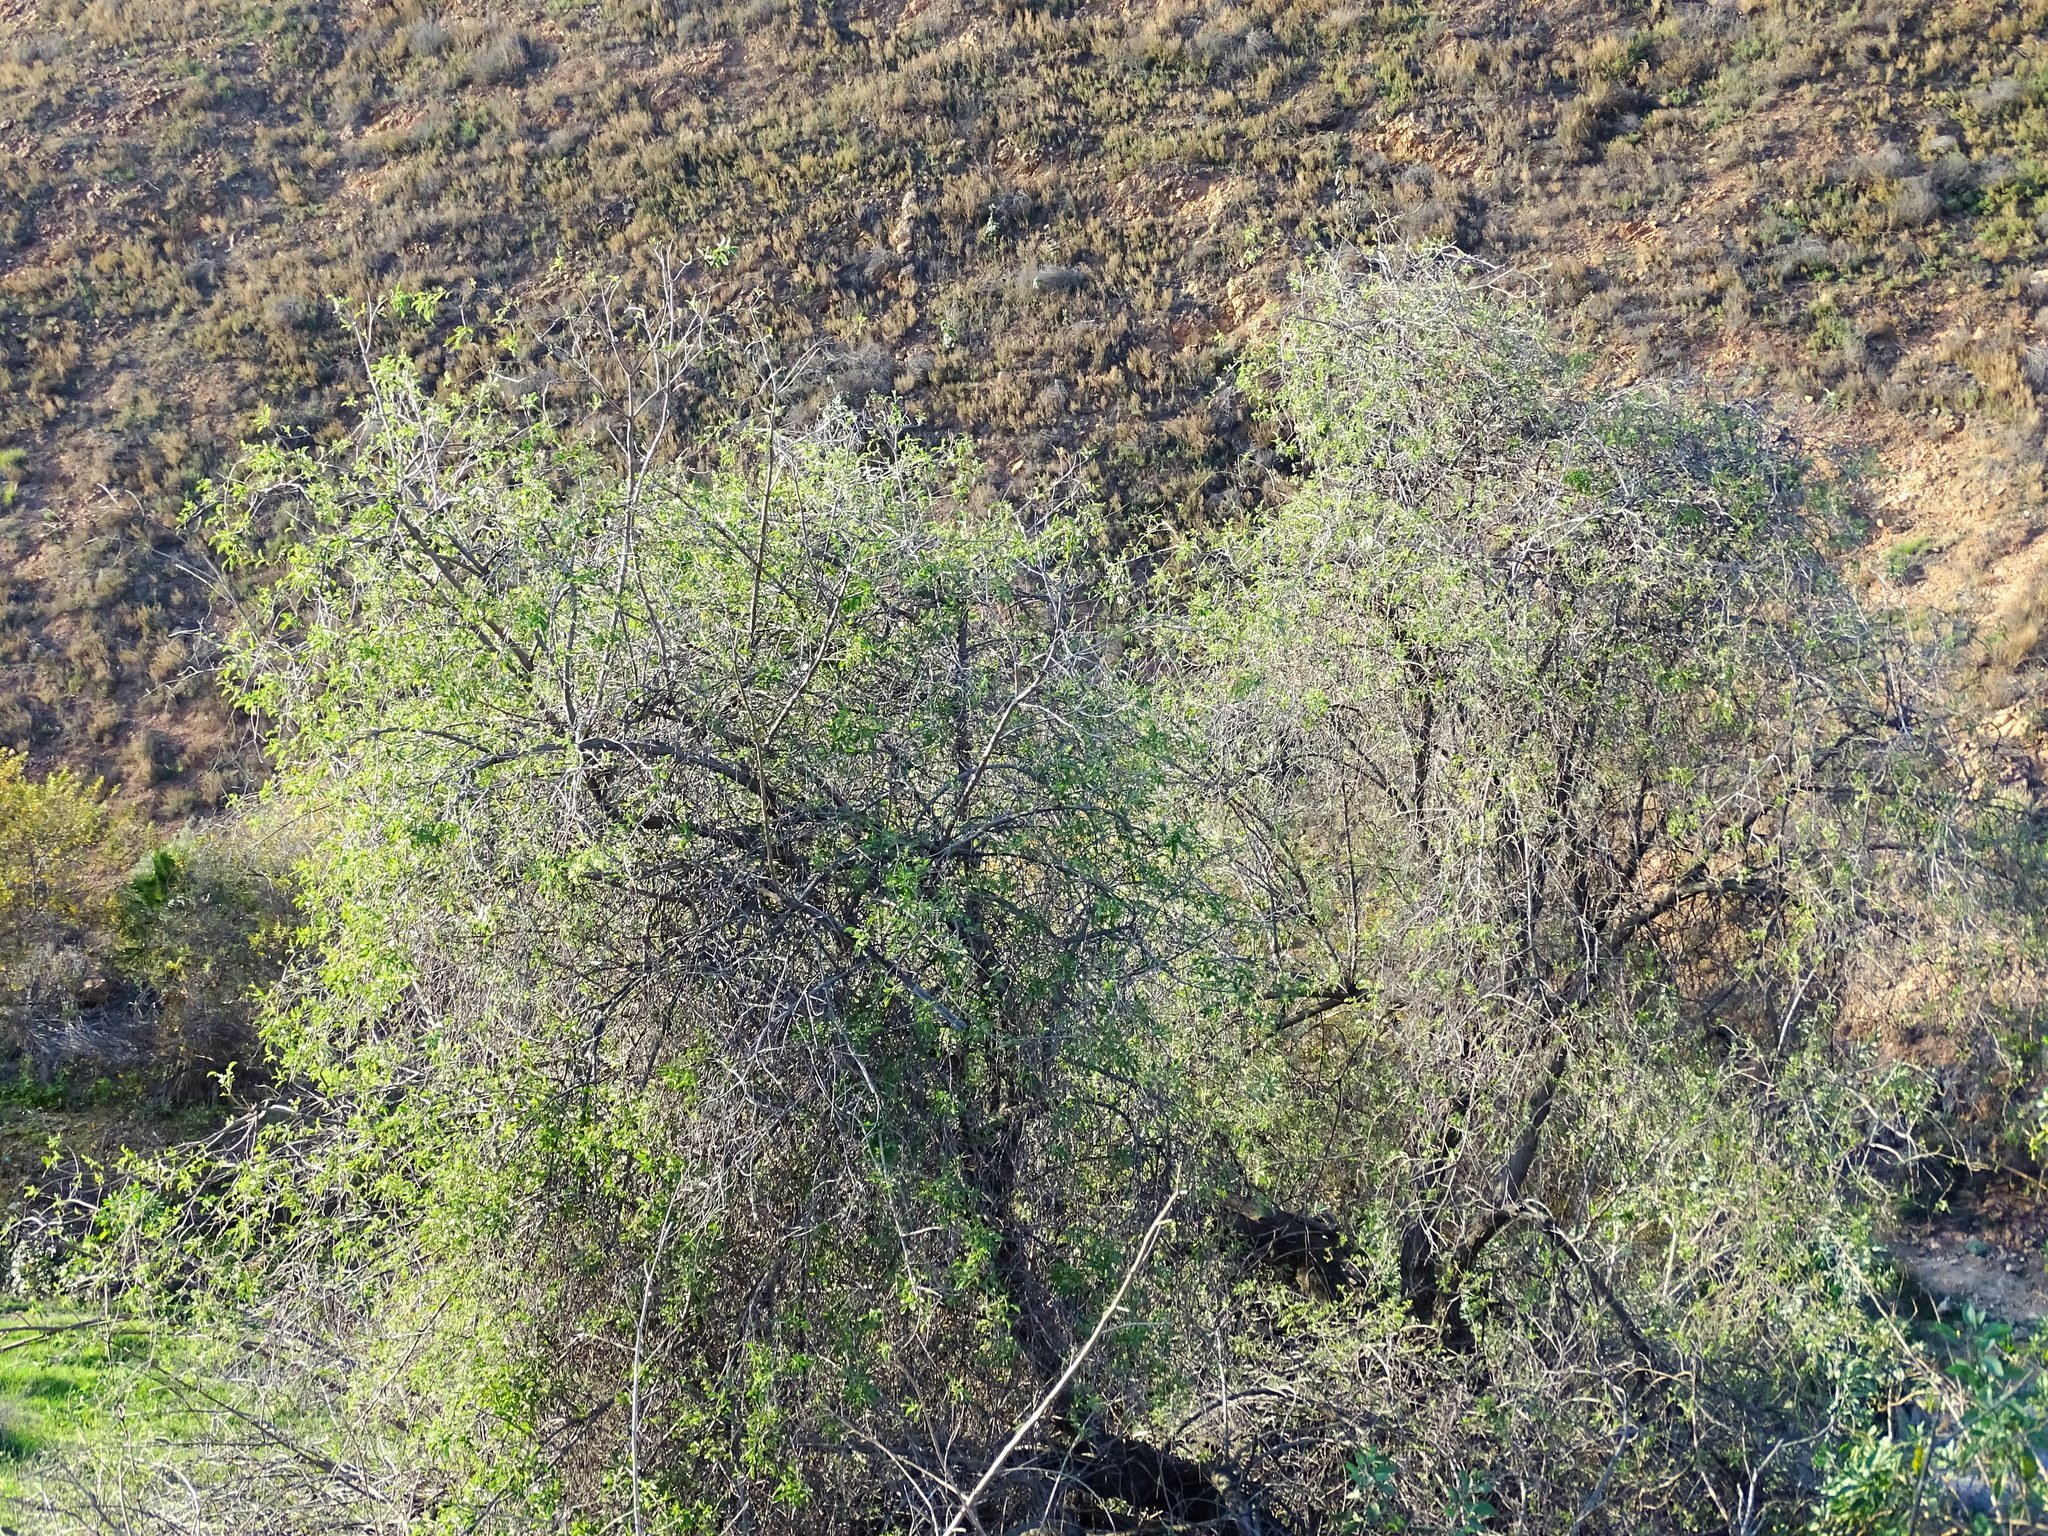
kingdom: Plantae
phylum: Tracheophyta
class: Magnoliopsida
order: Dipsacales
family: Viburnaceae
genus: Sambucus
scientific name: Sambucus cerulea
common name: Blue elder
